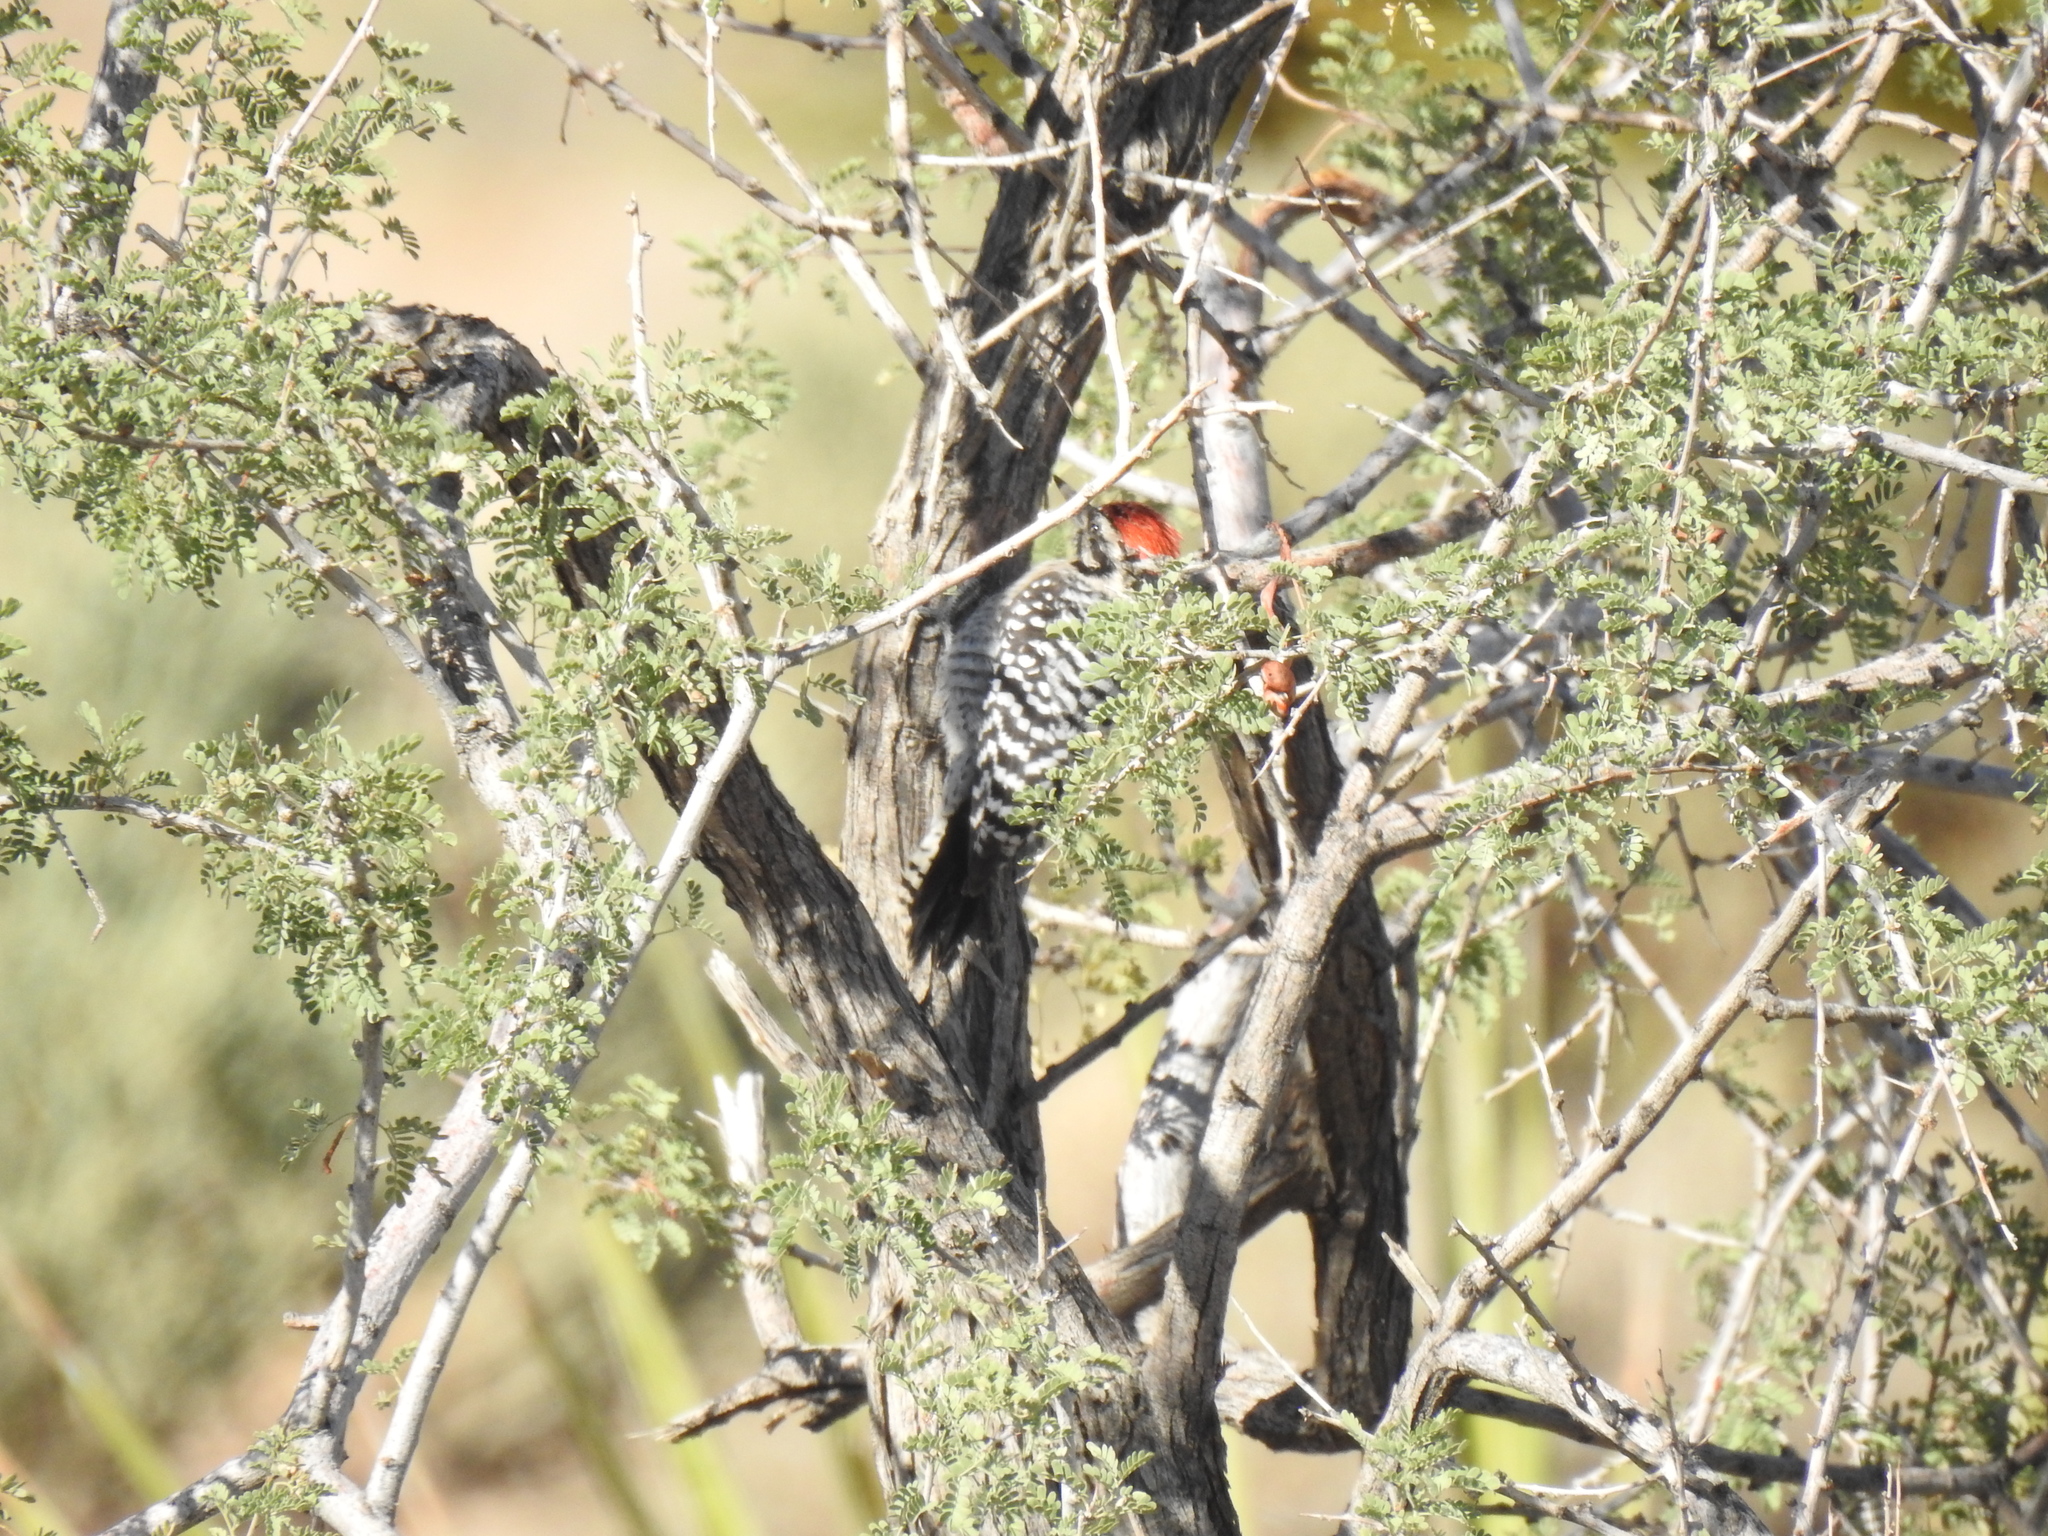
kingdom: Animalia
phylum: Chordata
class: Aves
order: Piciformes
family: Picidae
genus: Dryobates
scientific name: Dryobates scalaris
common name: Ladder-backed woodpecker
